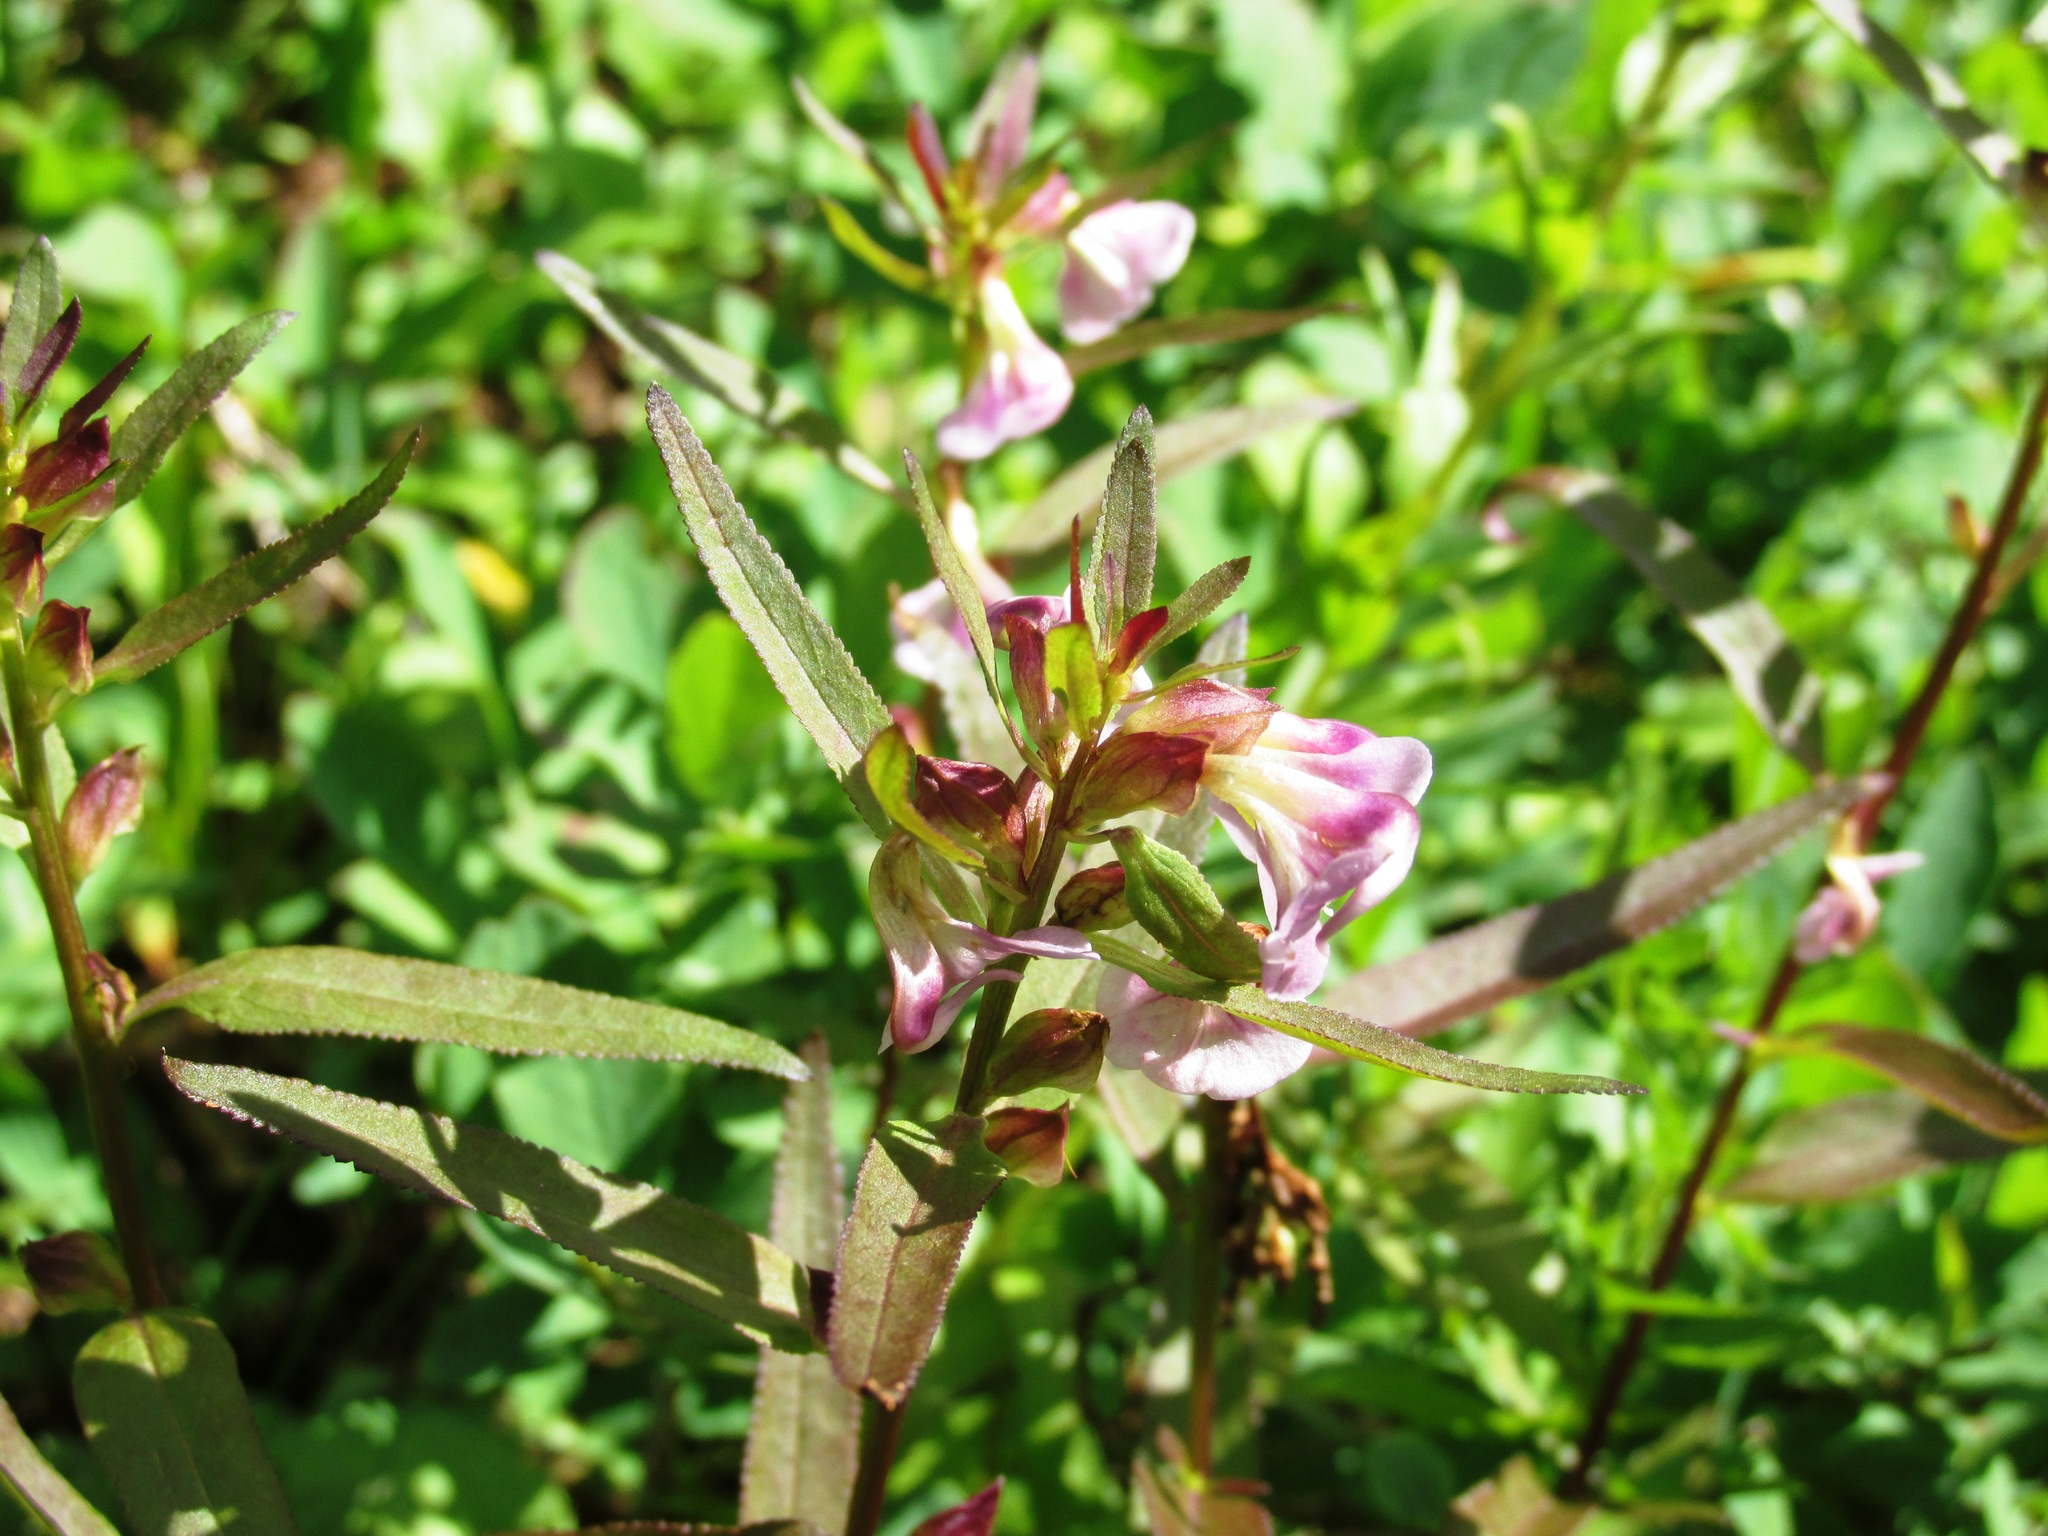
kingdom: Plantae
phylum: Tracheophyta
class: Magnoliopsida
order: Lamiales
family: Orobanchaceae
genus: Pedicularis
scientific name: Pedicularis racemosa
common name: Leafy lousewort
